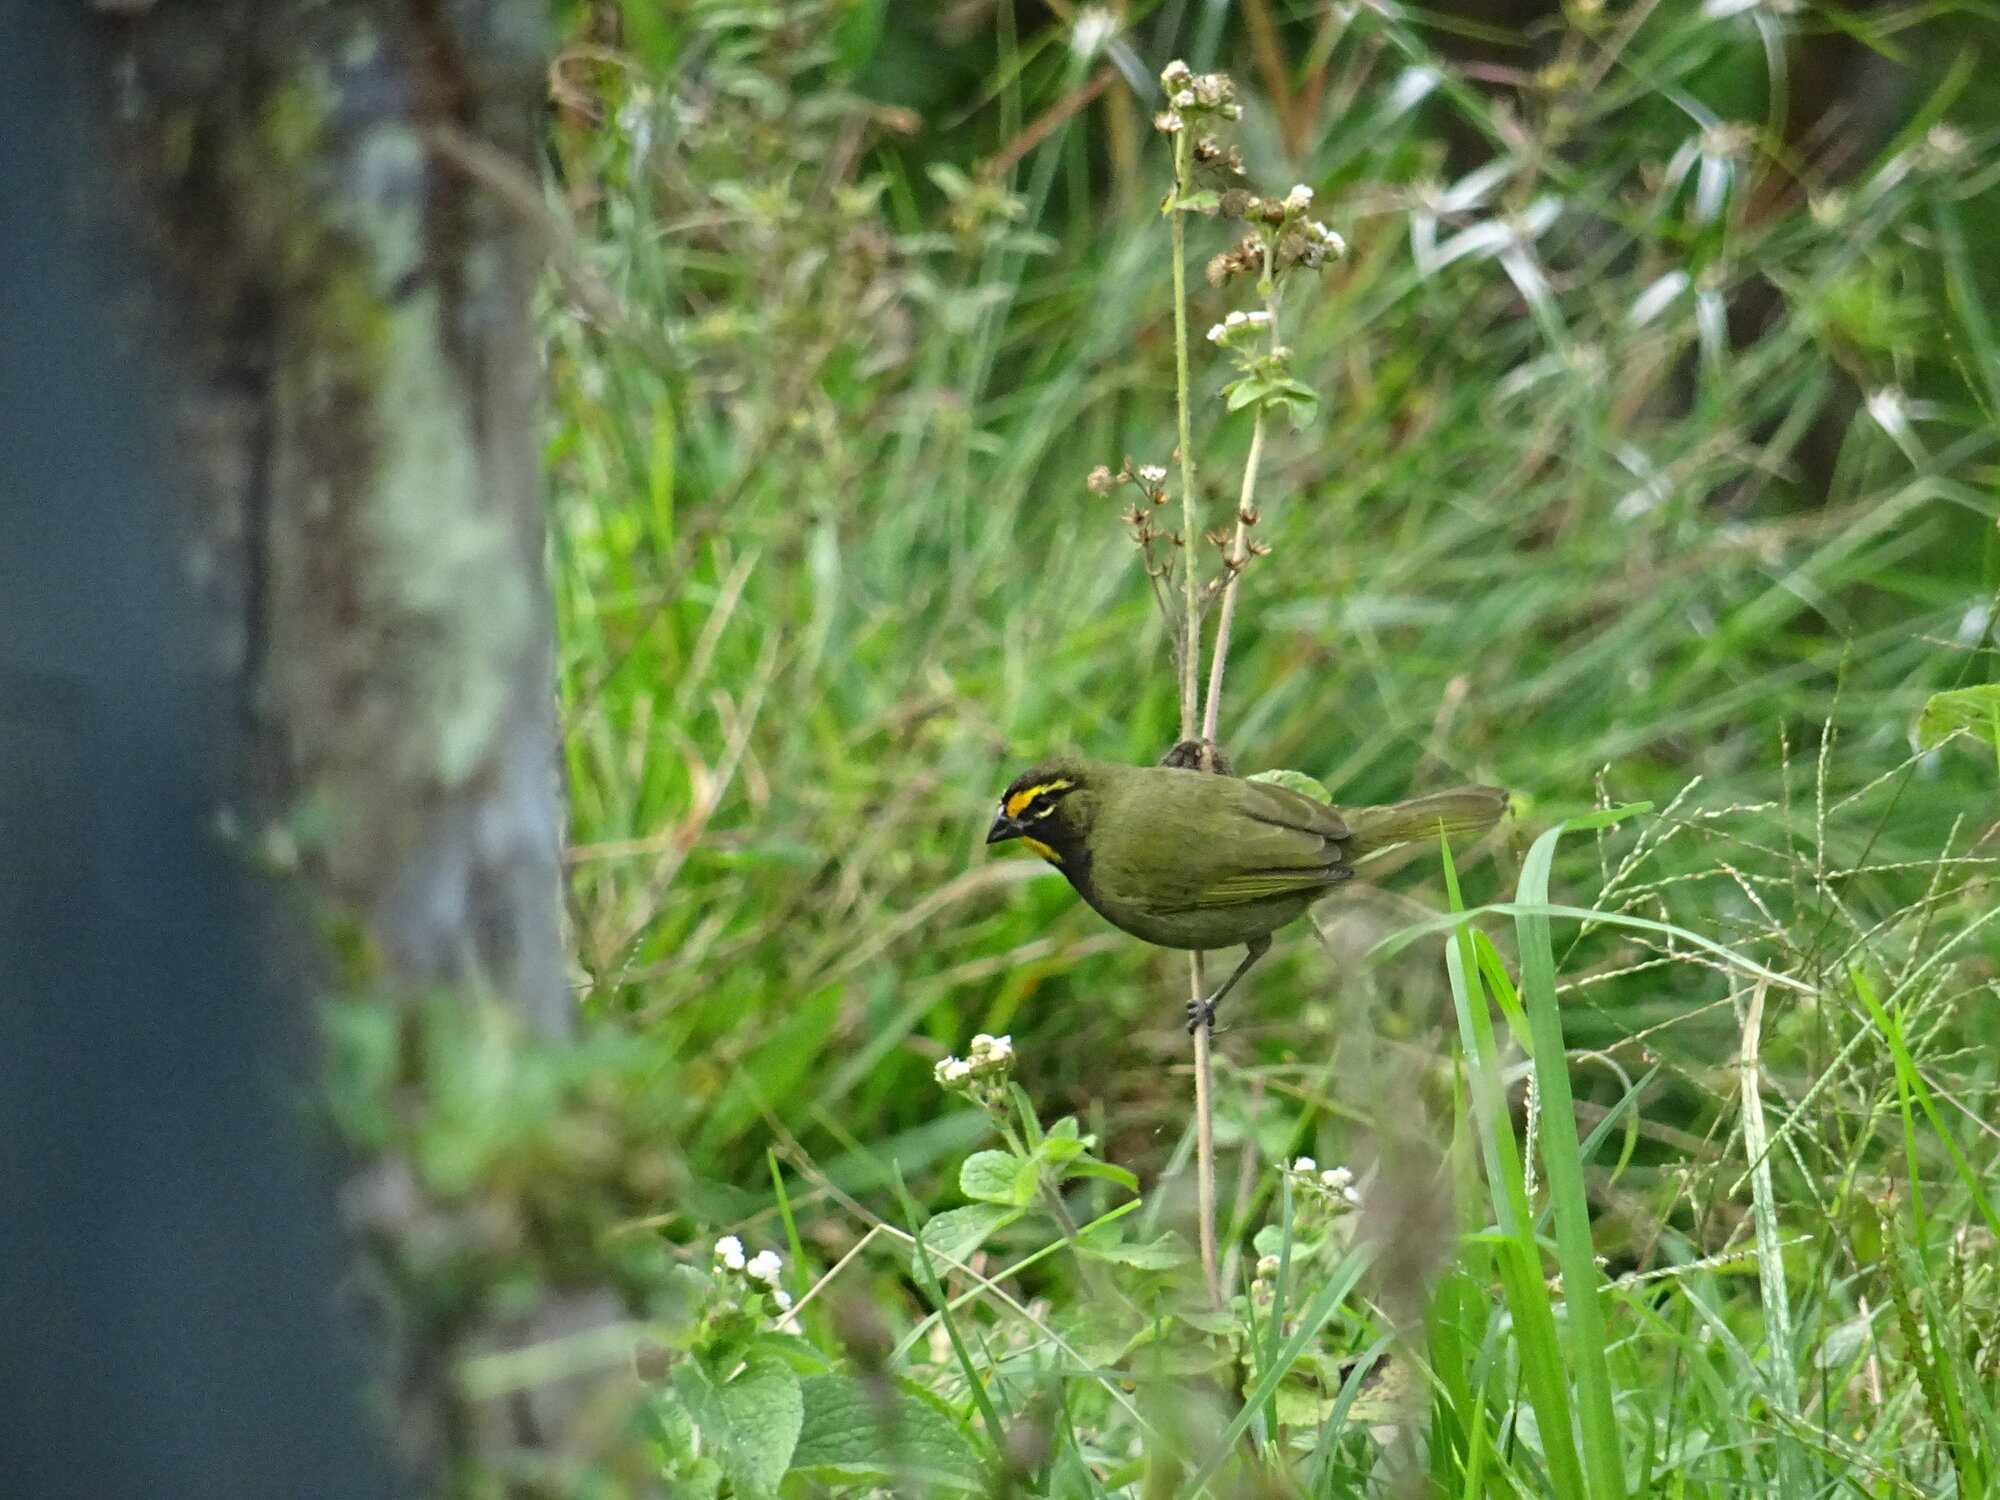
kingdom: Animalia
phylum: Chordata
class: Aves
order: Passeriformes
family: Thraupidae
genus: Tiaris
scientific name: Tiaris olivaceus
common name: Yellow-faced grassquit
